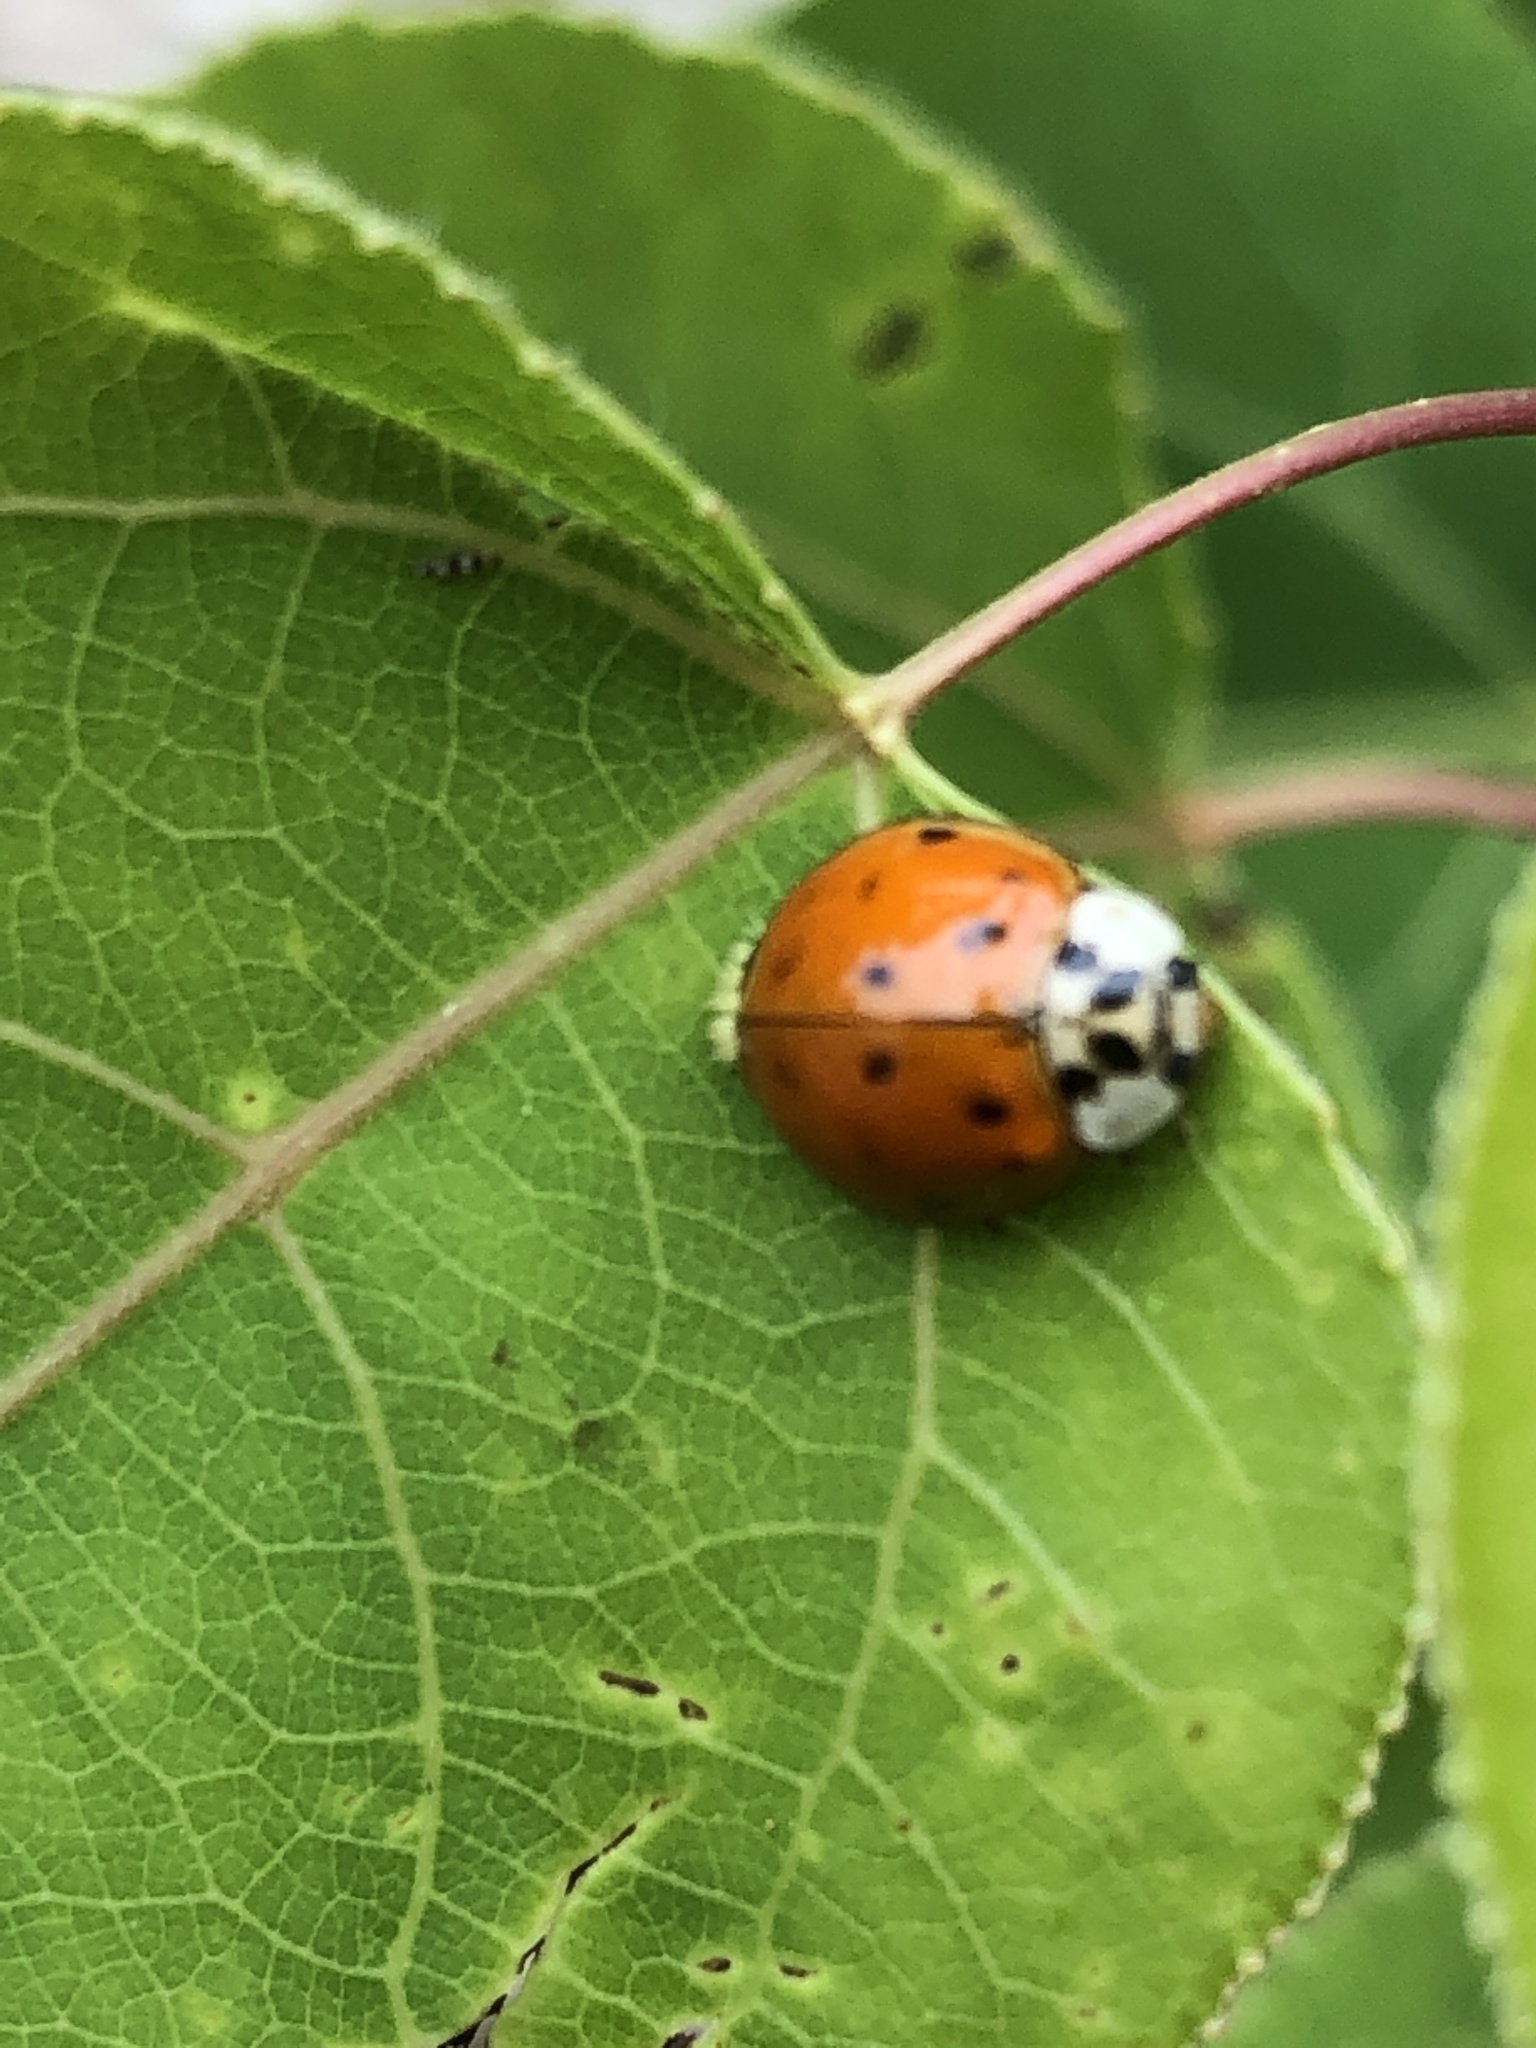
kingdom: Animalia
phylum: Arthropoda
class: Insecta
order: Coleoptera
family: Coccinellidae
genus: Harmonia
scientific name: Harmonia axyridis
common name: Harlequin ladybird
